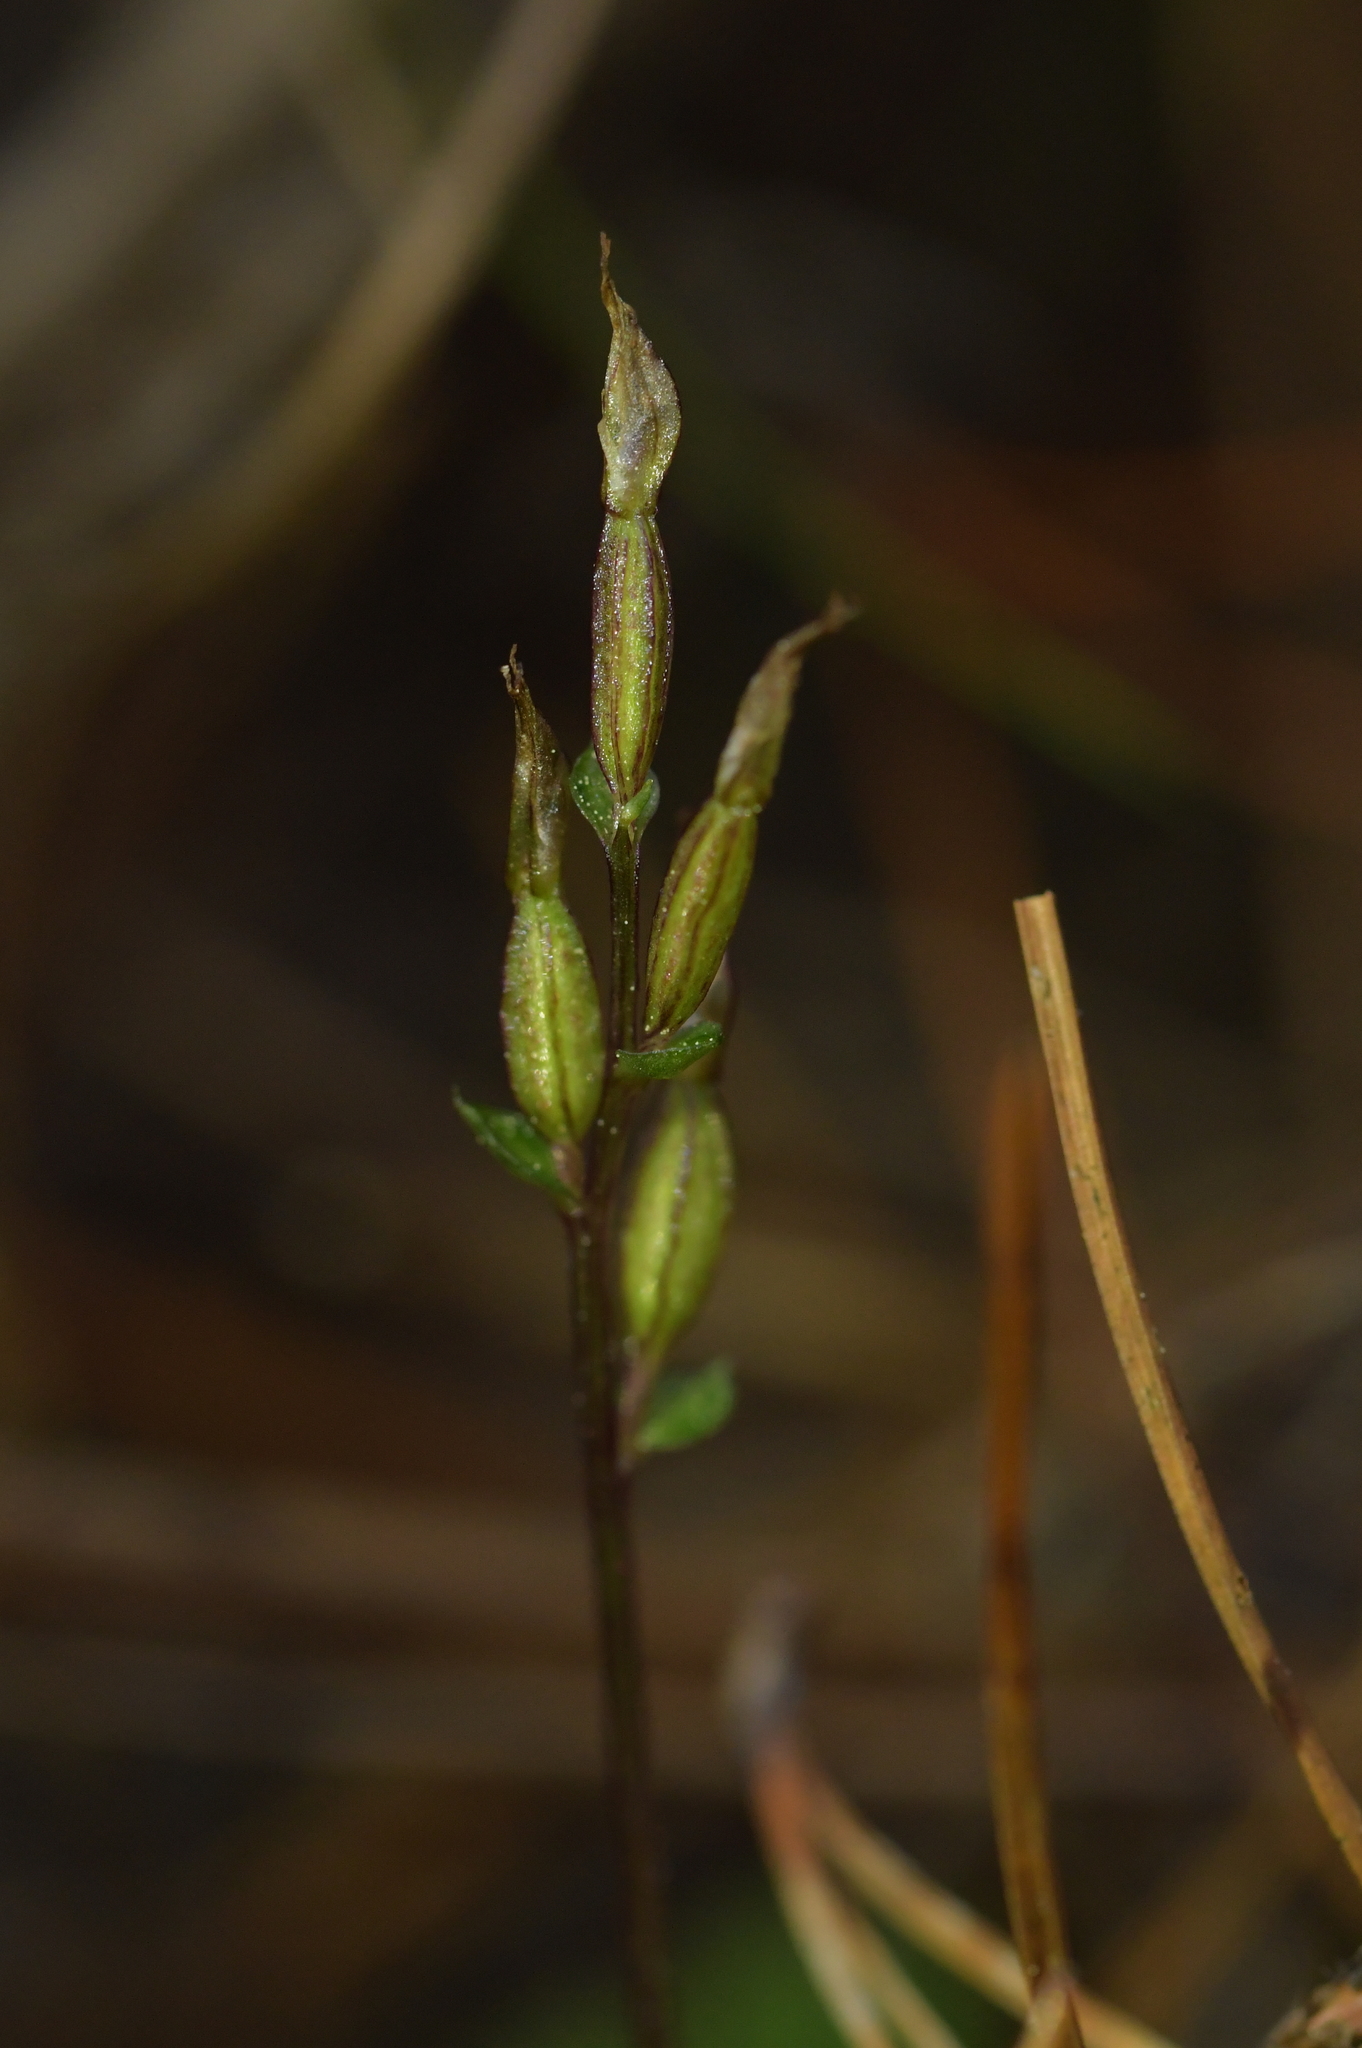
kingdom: Plantae
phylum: Tracheophyta
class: Liliopsida
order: Asparagales
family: Orchidaceae
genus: Acianthus
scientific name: Acianthus sinclairii
